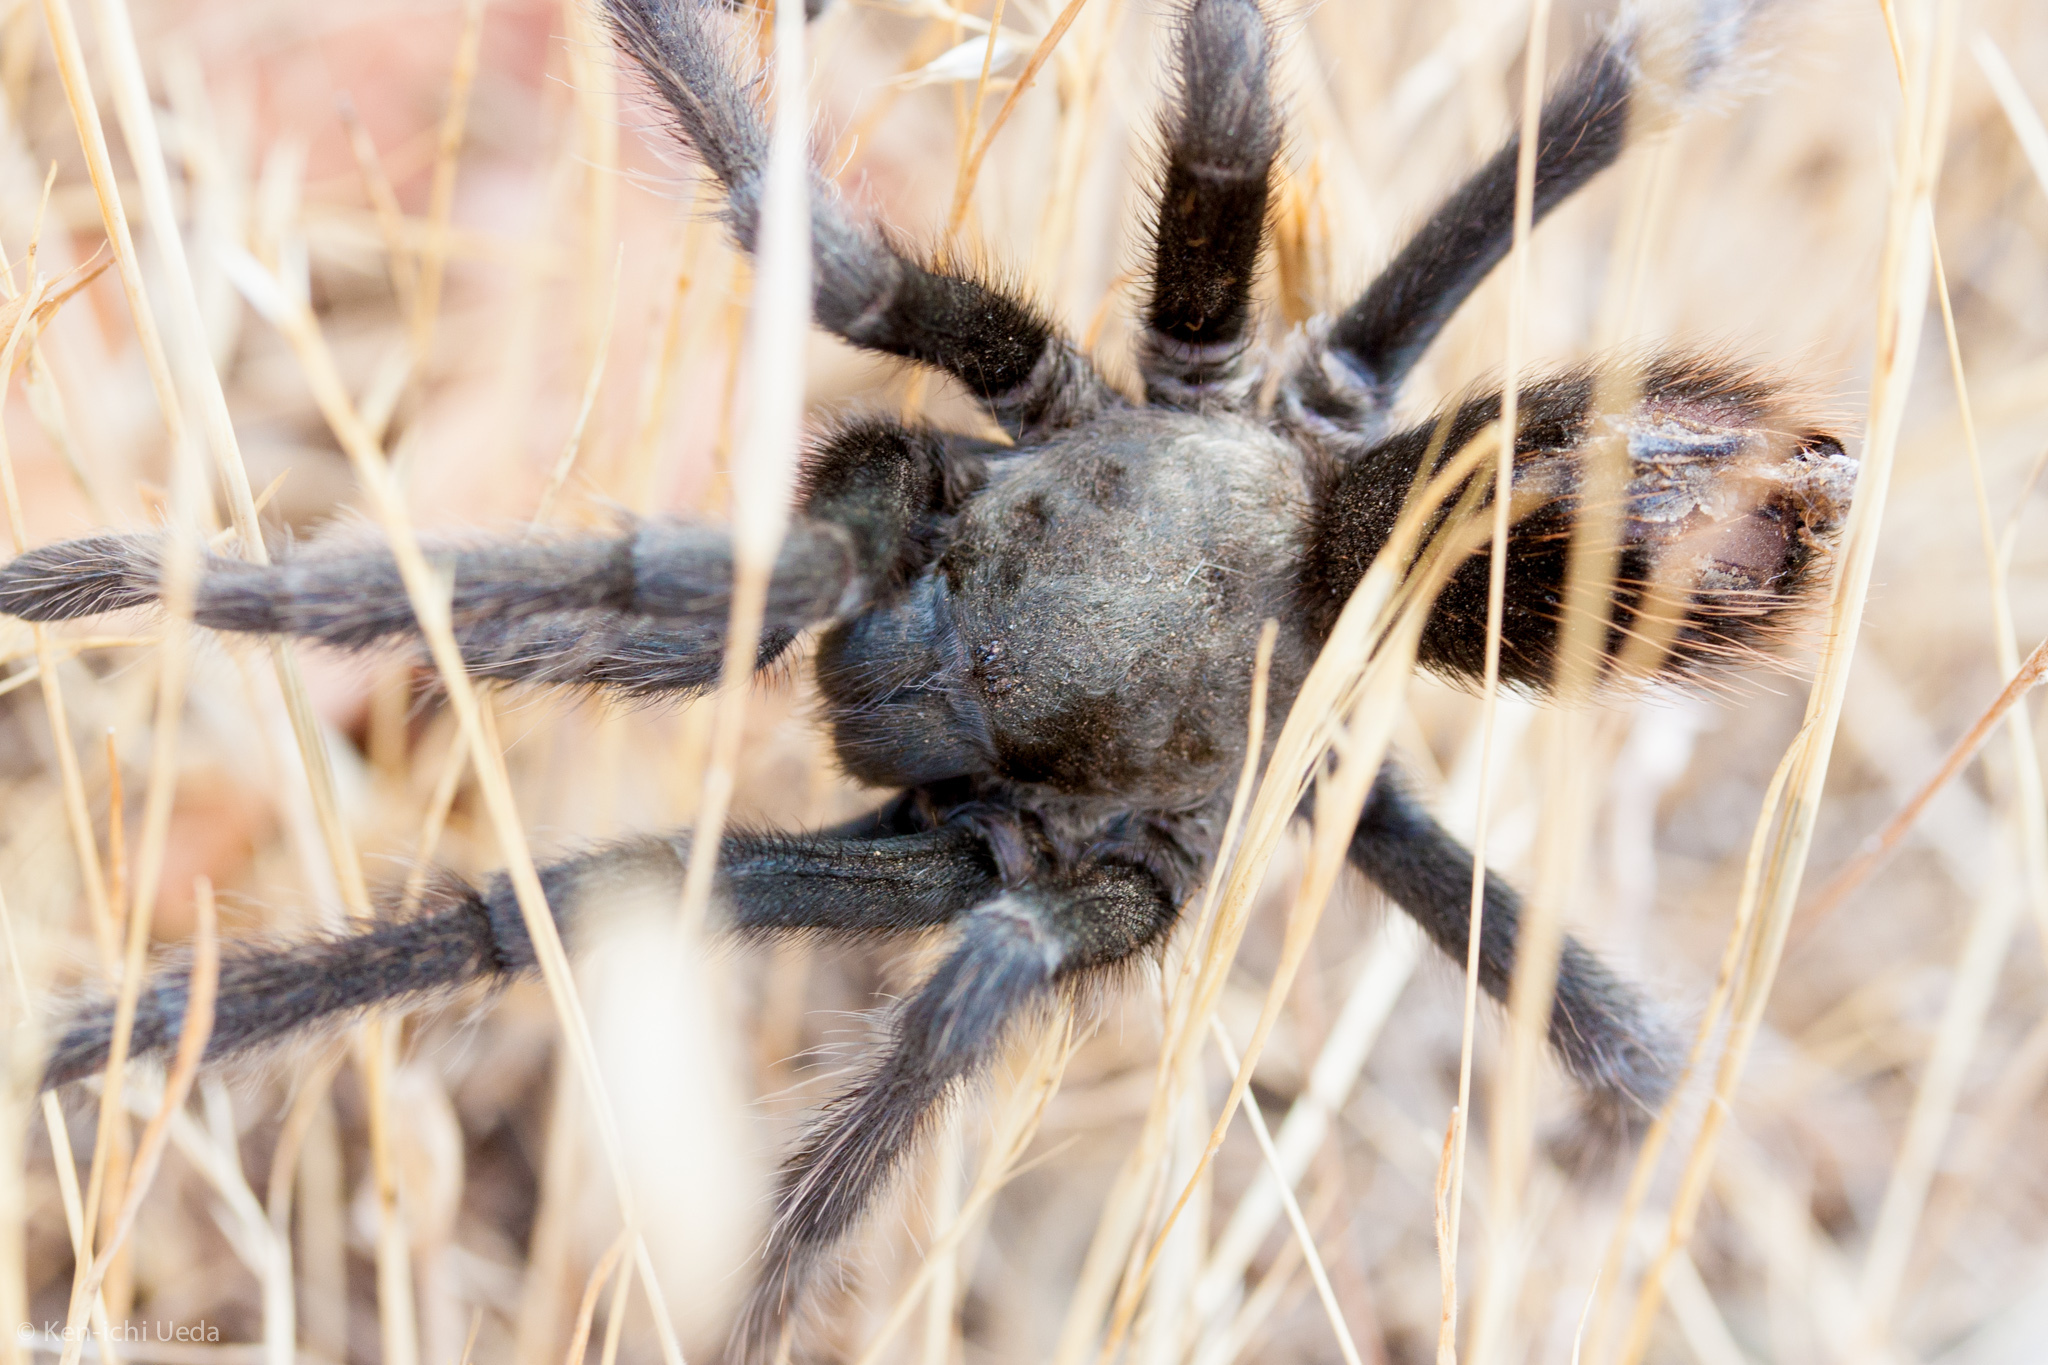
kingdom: Animalia
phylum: Arthropoda
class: Arachnida
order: Araneae
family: Theraphosidae
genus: Aphonopelma
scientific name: Aphonopelma iodius
